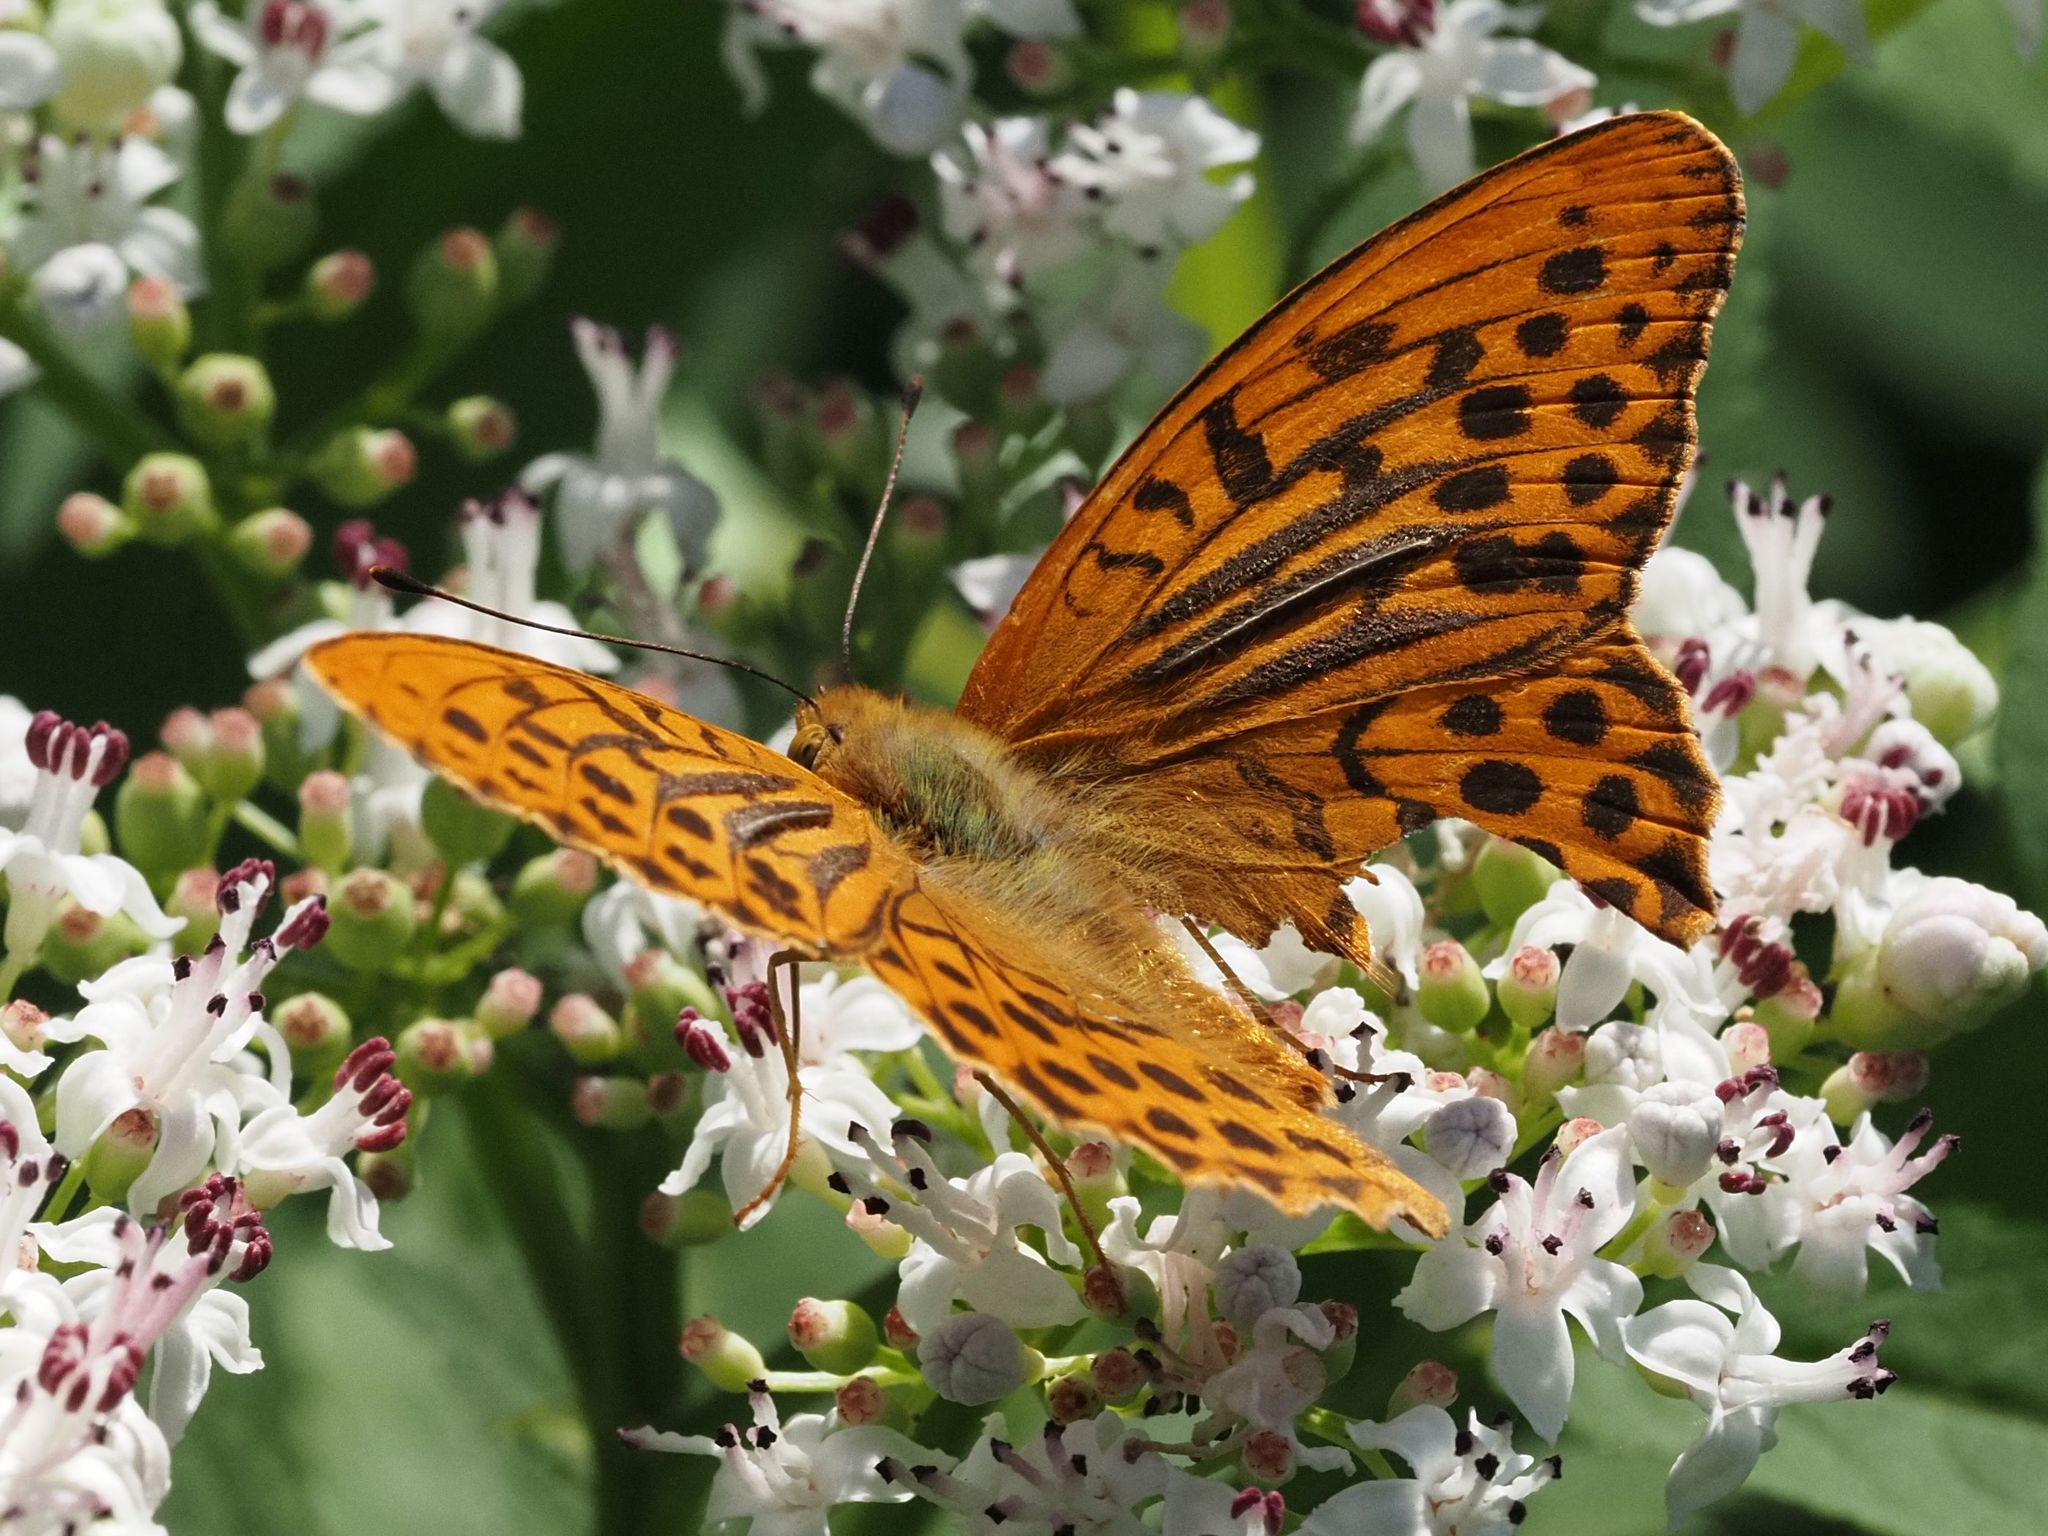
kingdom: Animalia
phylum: Arthropoda
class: Insecta
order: Lepidoptera
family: Nymphalidae
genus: Argynnis
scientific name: Argynnis paphia
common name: Silver-washed fritillary
